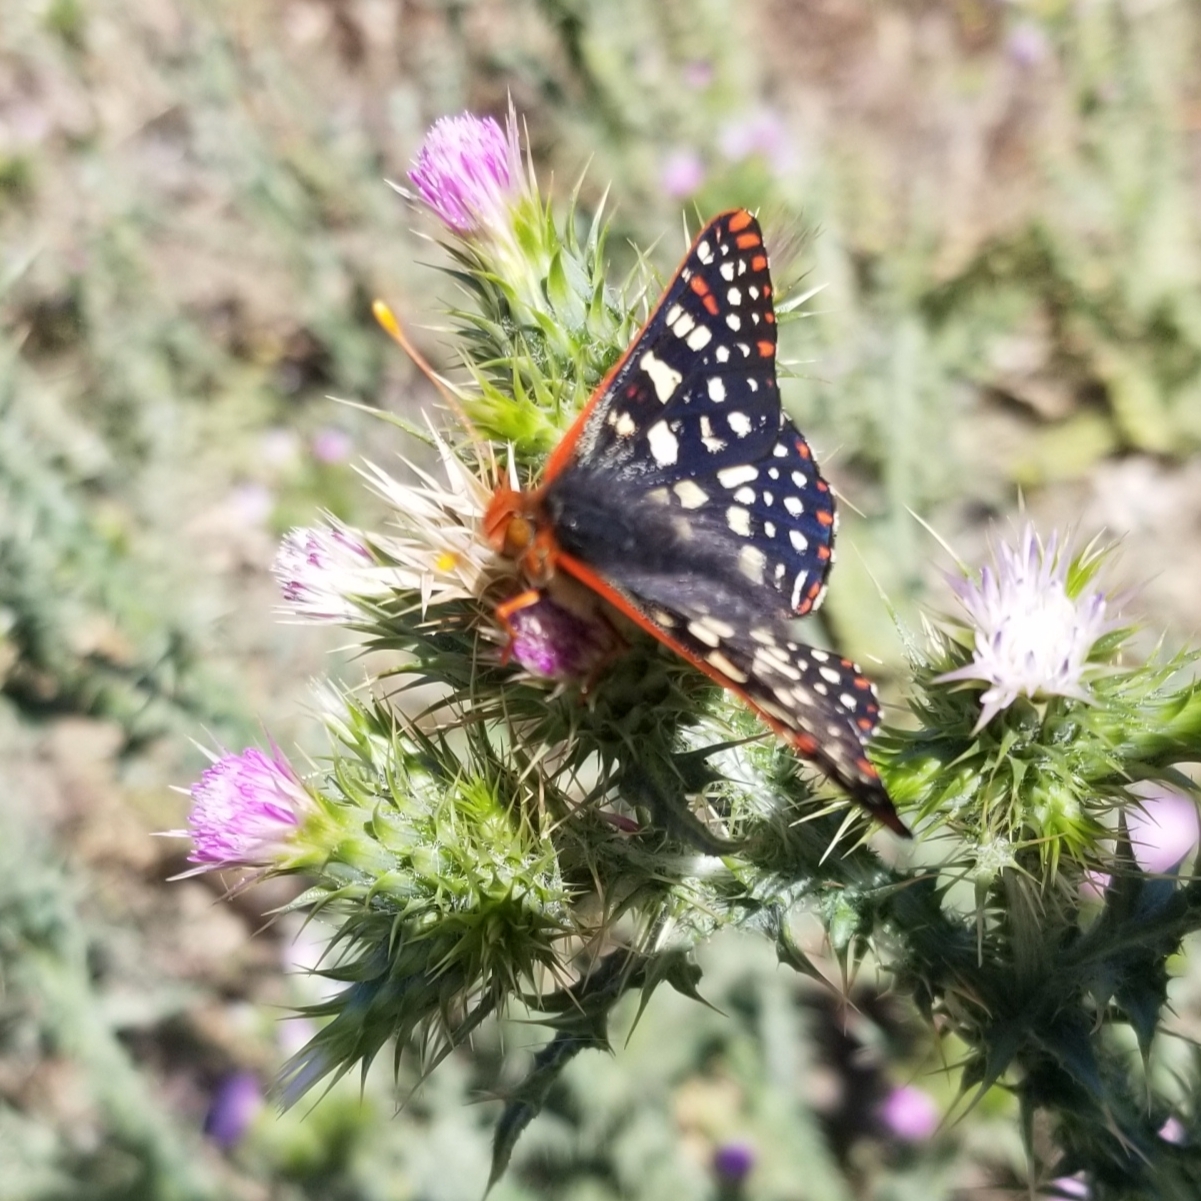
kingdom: Animalia
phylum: Arthropoda
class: Insecta
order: Lepidoptera
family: Nymphalidae
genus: Occidryas
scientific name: Occidryas chalcedona
